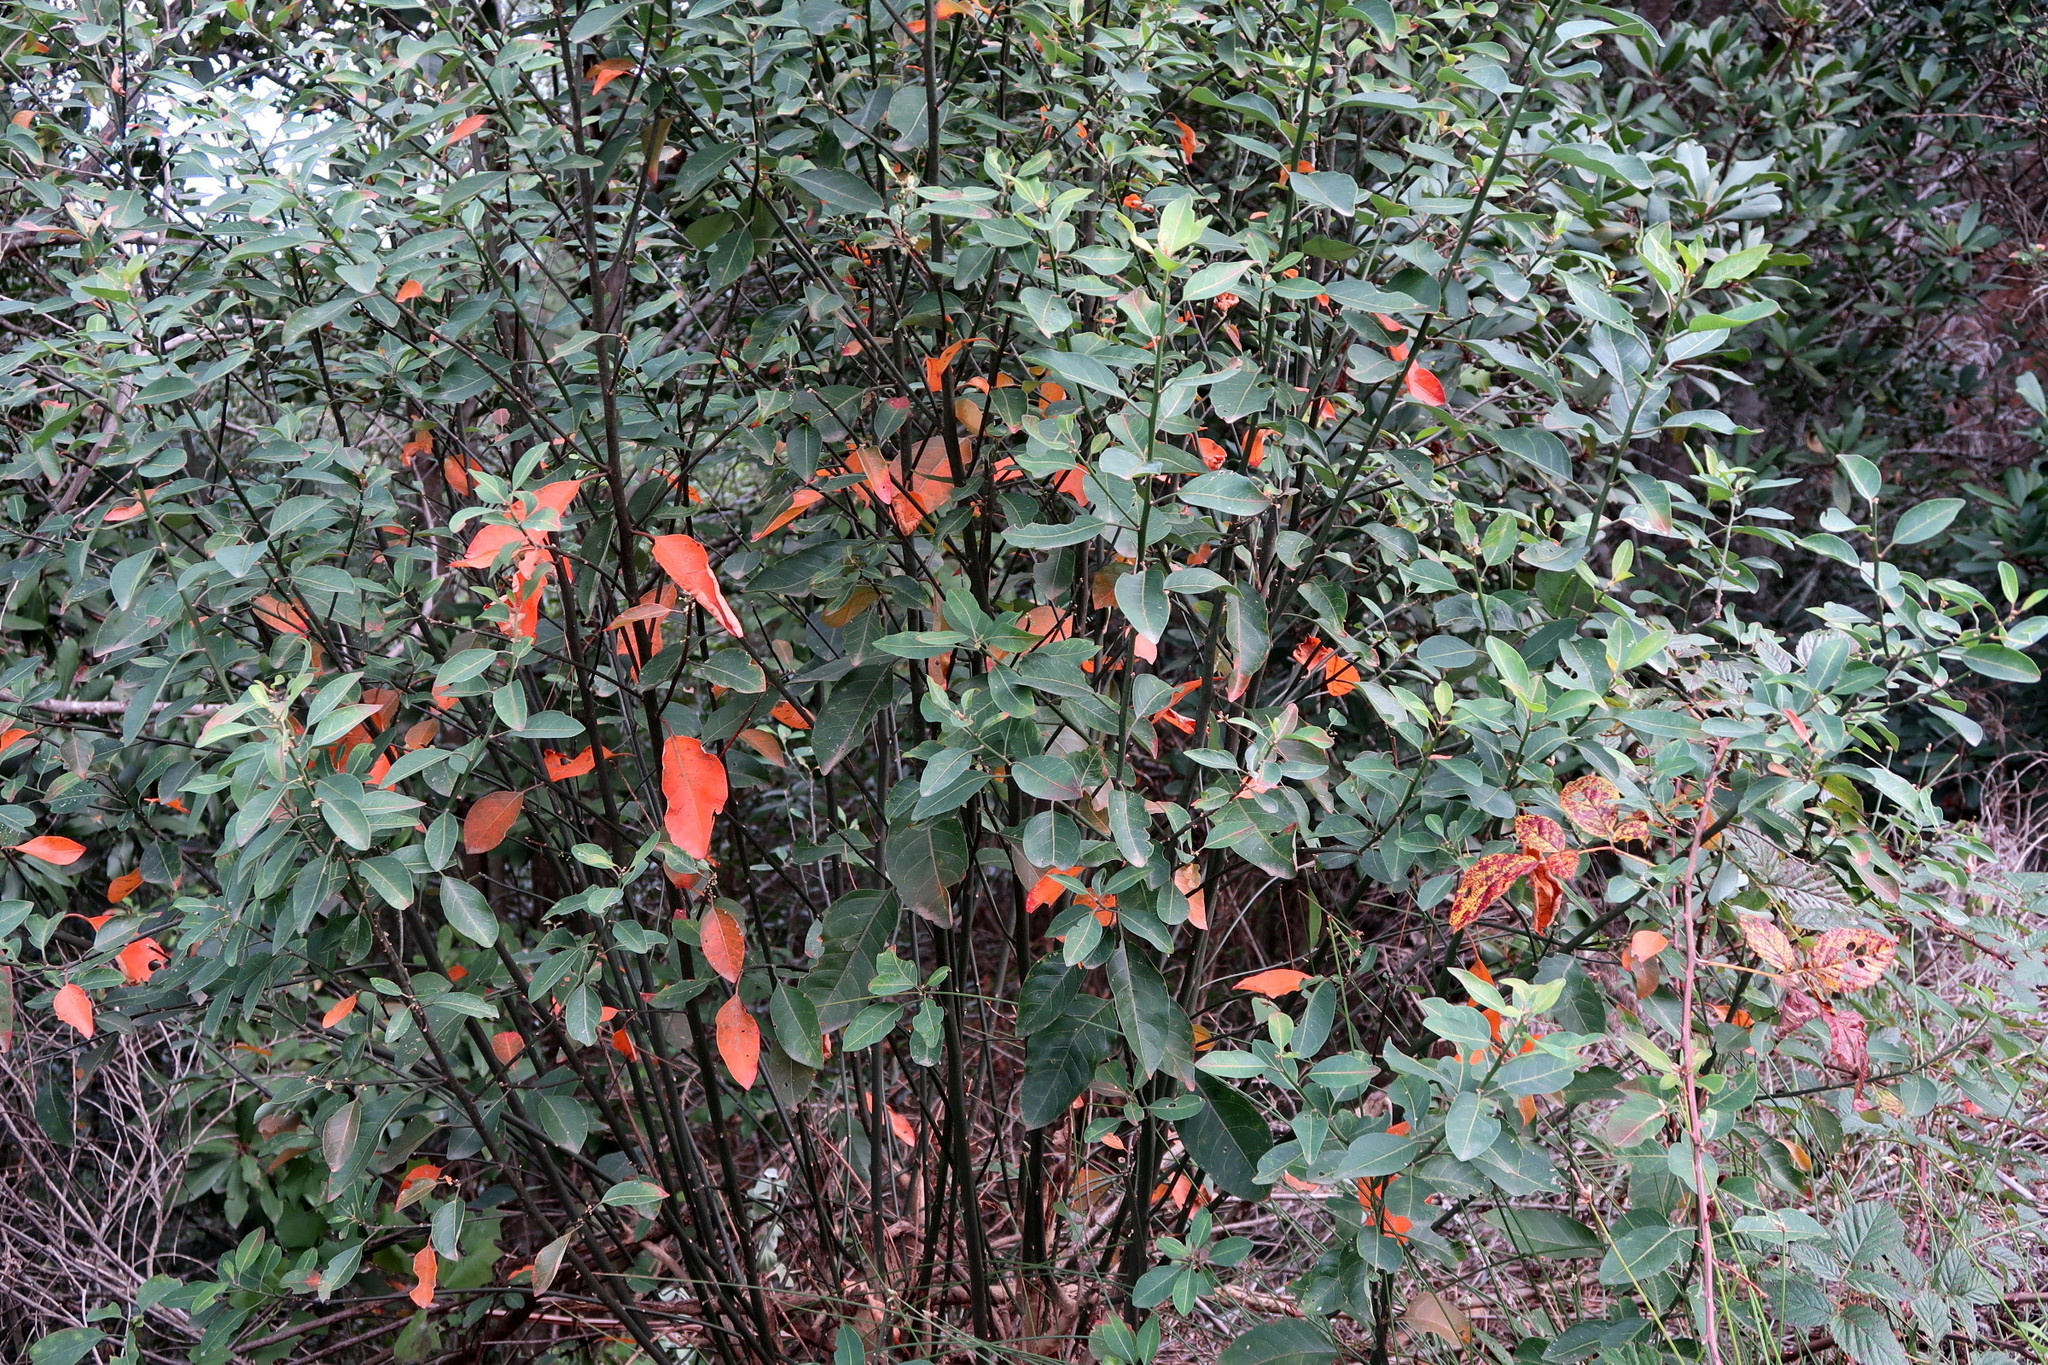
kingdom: Plantae
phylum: Tracheophyta
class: Magnoliopsida
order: Malpighiales
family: Peraceae
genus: Clutia
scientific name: Clutia pulchella
